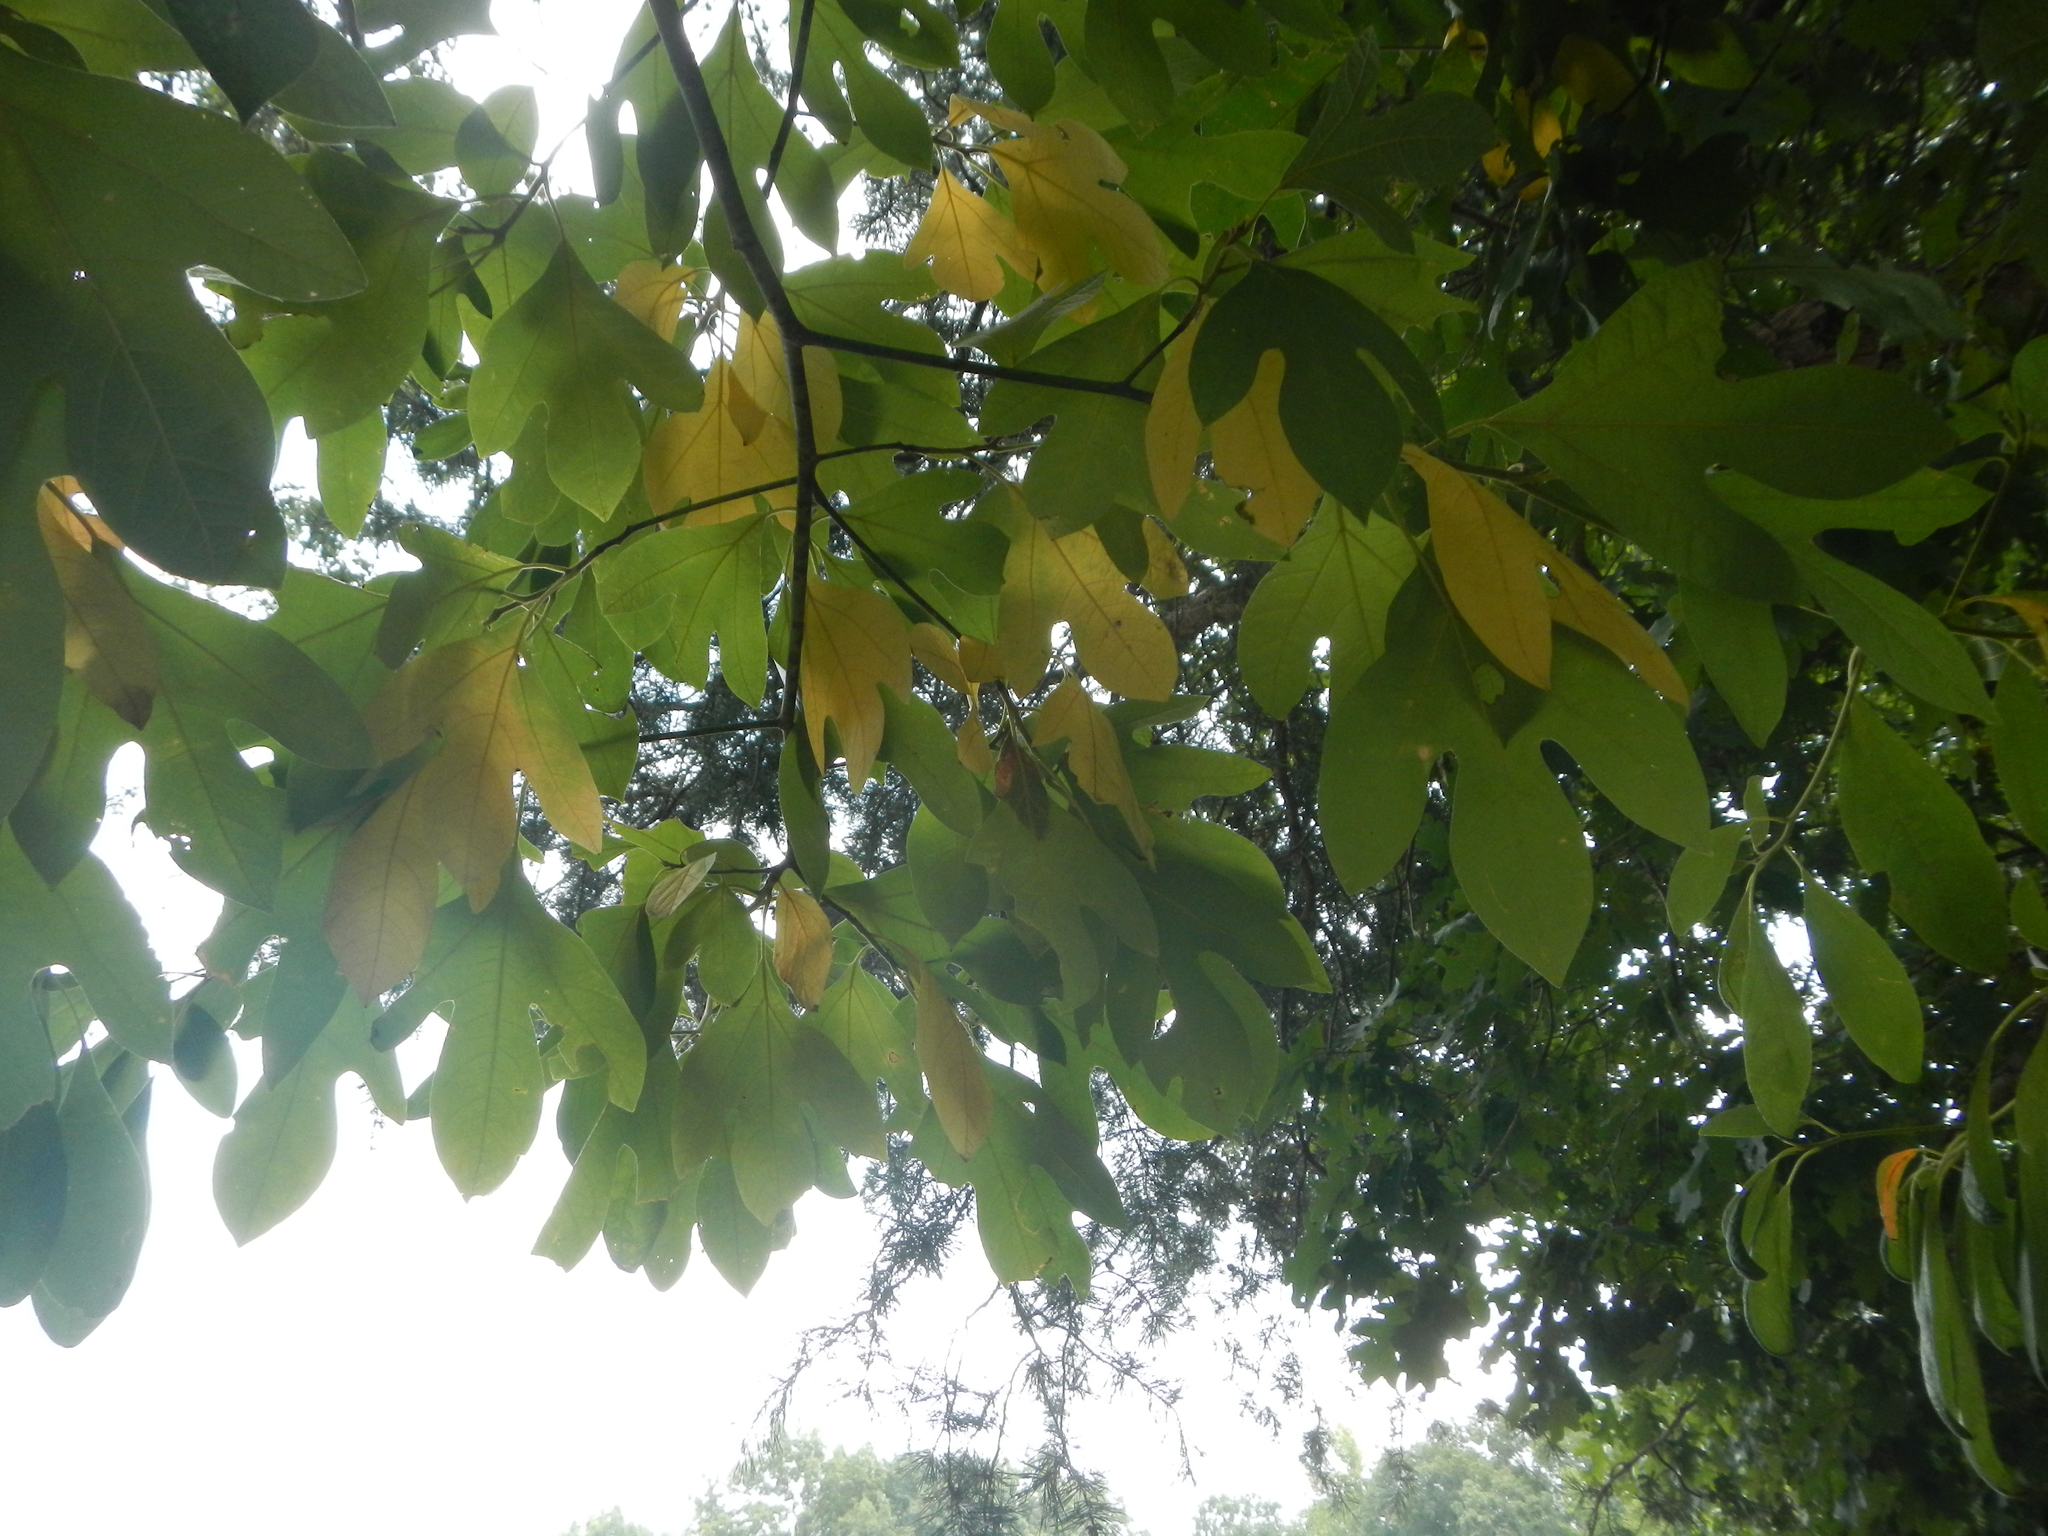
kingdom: Plantae
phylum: Tracheophyta
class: Magnoliopsida
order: Laurales
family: Lauraceae
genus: Sassafras
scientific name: Sassafras albidum
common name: Sassafras
